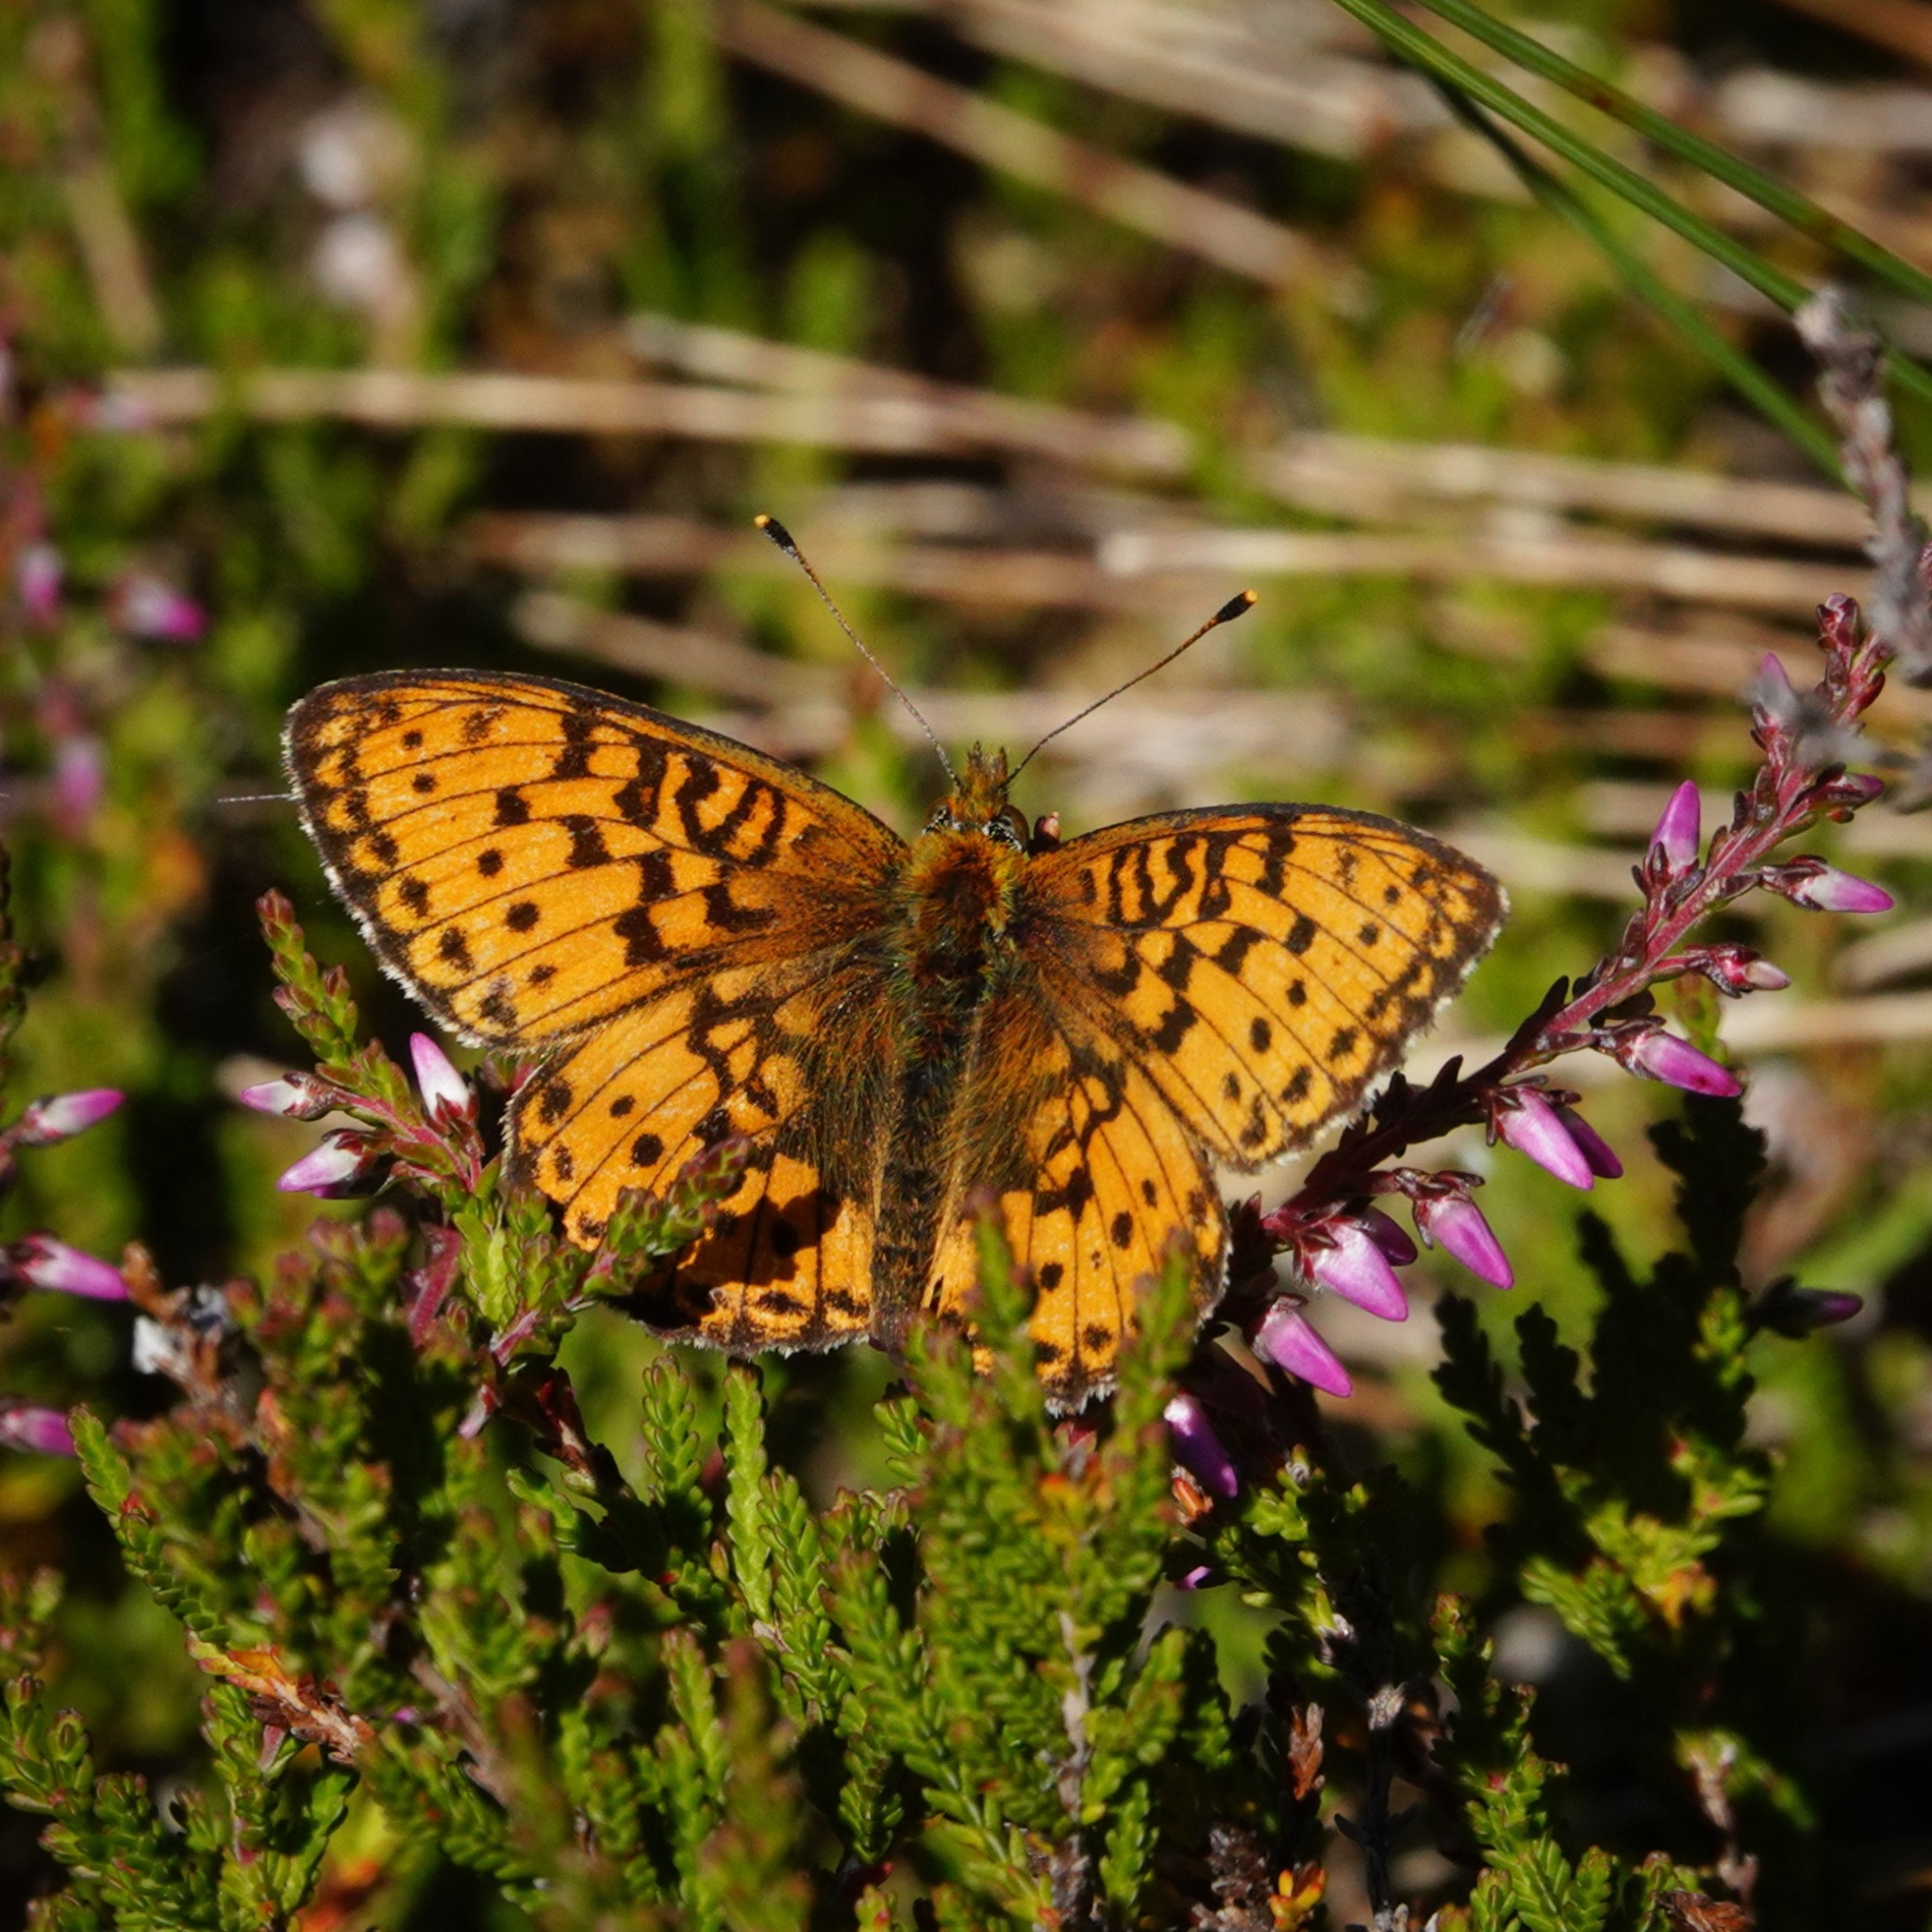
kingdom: Animalia
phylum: Arthropoda
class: Insecta
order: Lepidoptera
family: Nymphalidae
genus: Brenthis
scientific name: Brenthis ino
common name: Lesser marbled fritillary
